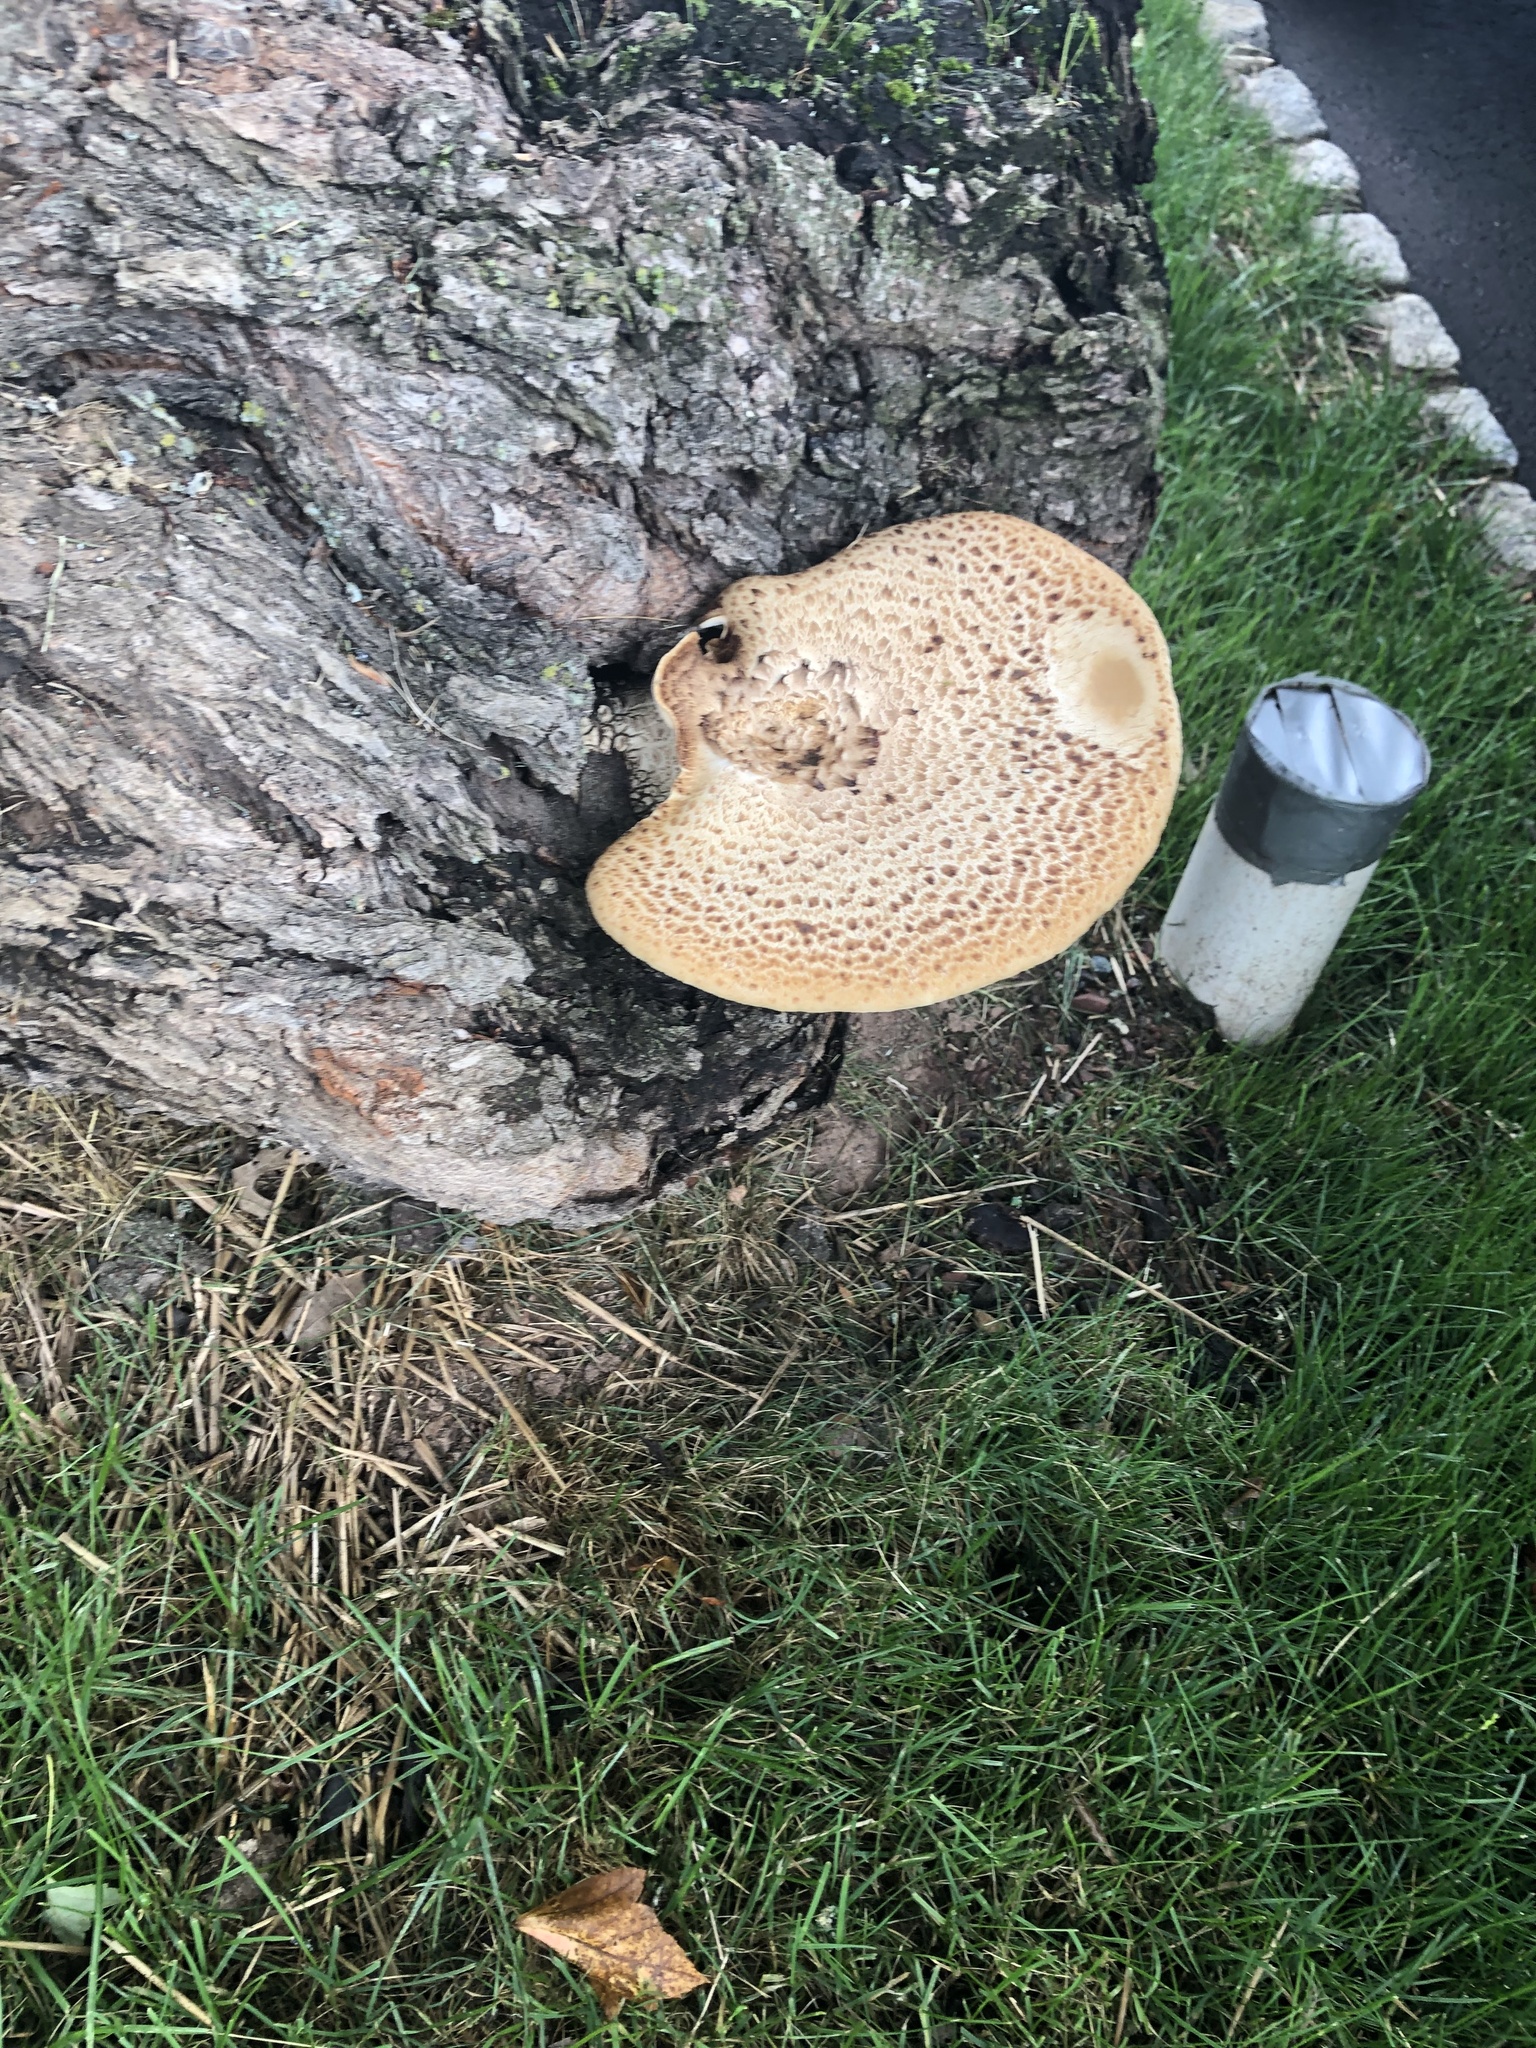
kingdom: Fungi
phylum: Basidiomycota
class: Agaricomycetes
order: Polyporales
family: Polyporaceae
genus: Cerioporus
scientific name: Cerioporus squamosus
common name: Dryad's saddle
